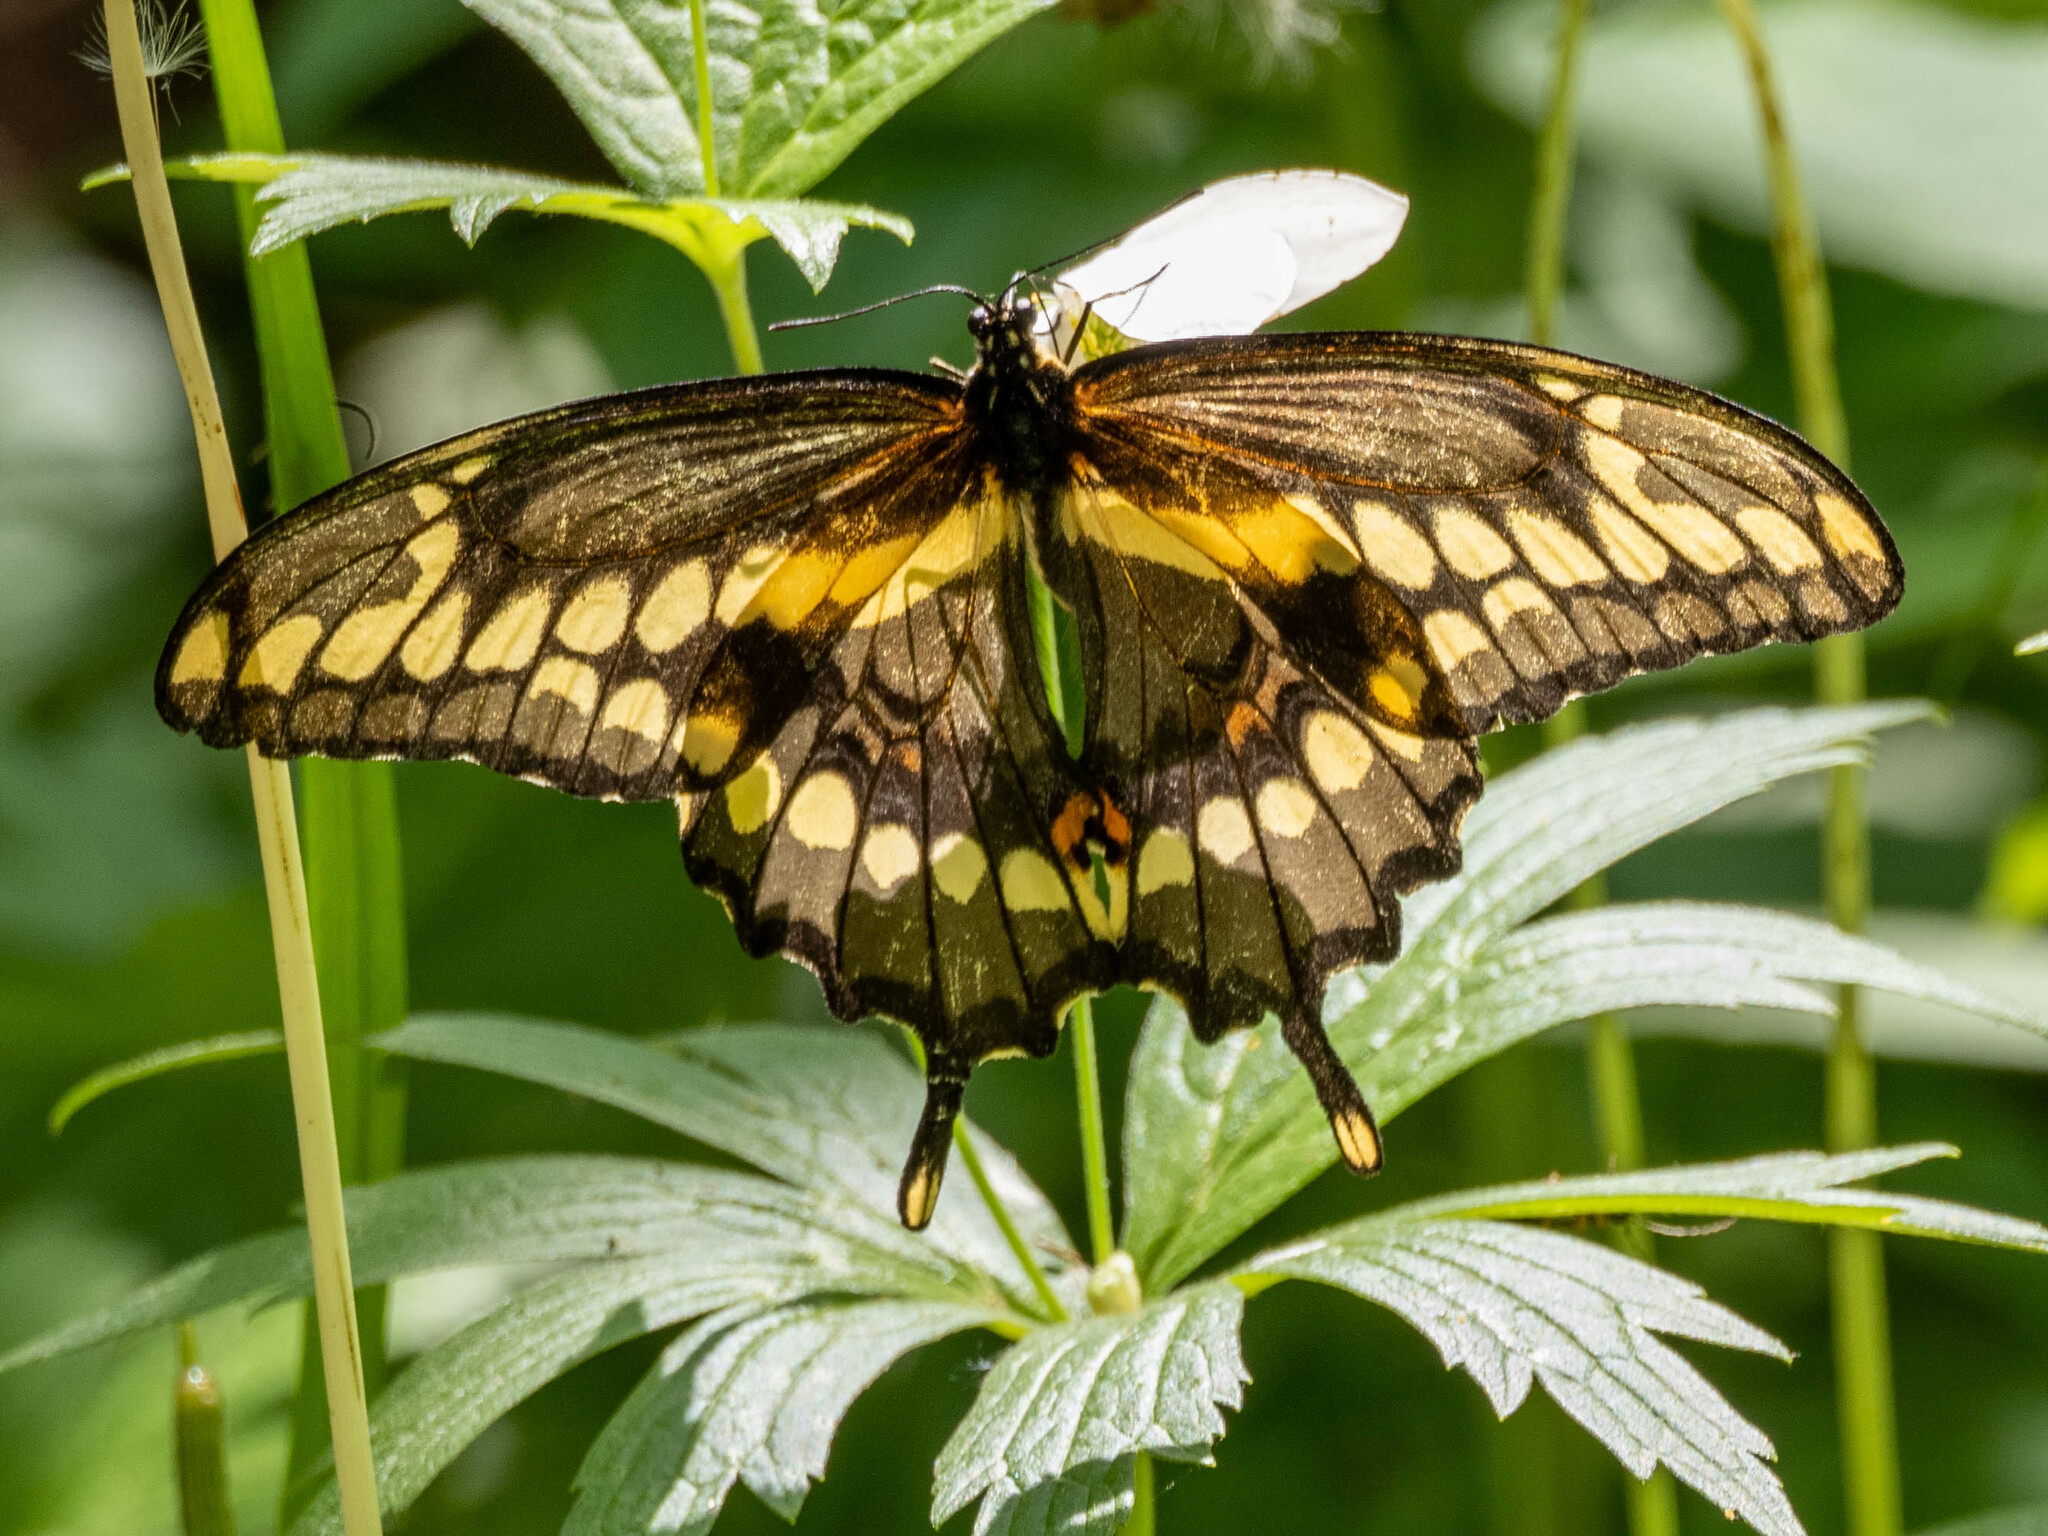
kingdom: Animalia
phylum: Arthropoda
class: Insecta
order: Lepidoptera
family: Papilionidae
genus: Papilio
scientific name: Papilio cresphontes
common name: Giant swallowtail
